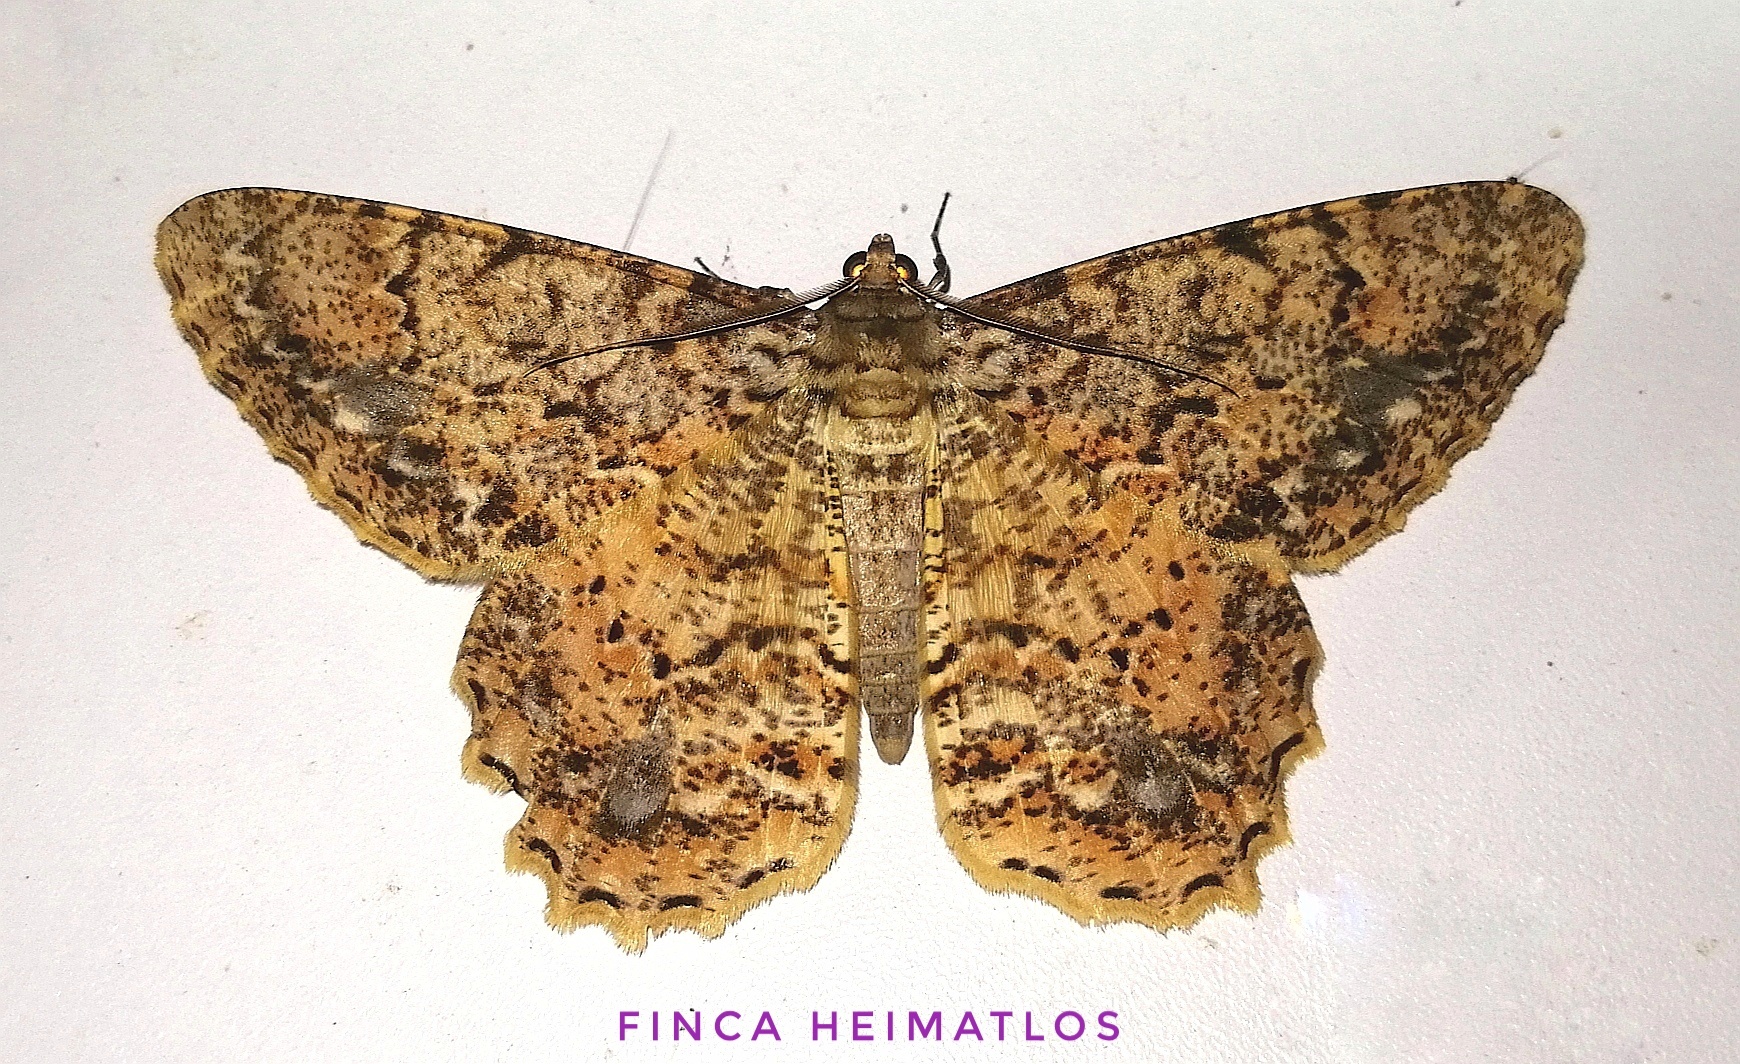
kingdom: Animalia
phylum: Arthropoda
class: Insecta
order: Lepidoptera
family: Geometridae
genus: Epimecis
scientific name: Epimecis nasica
